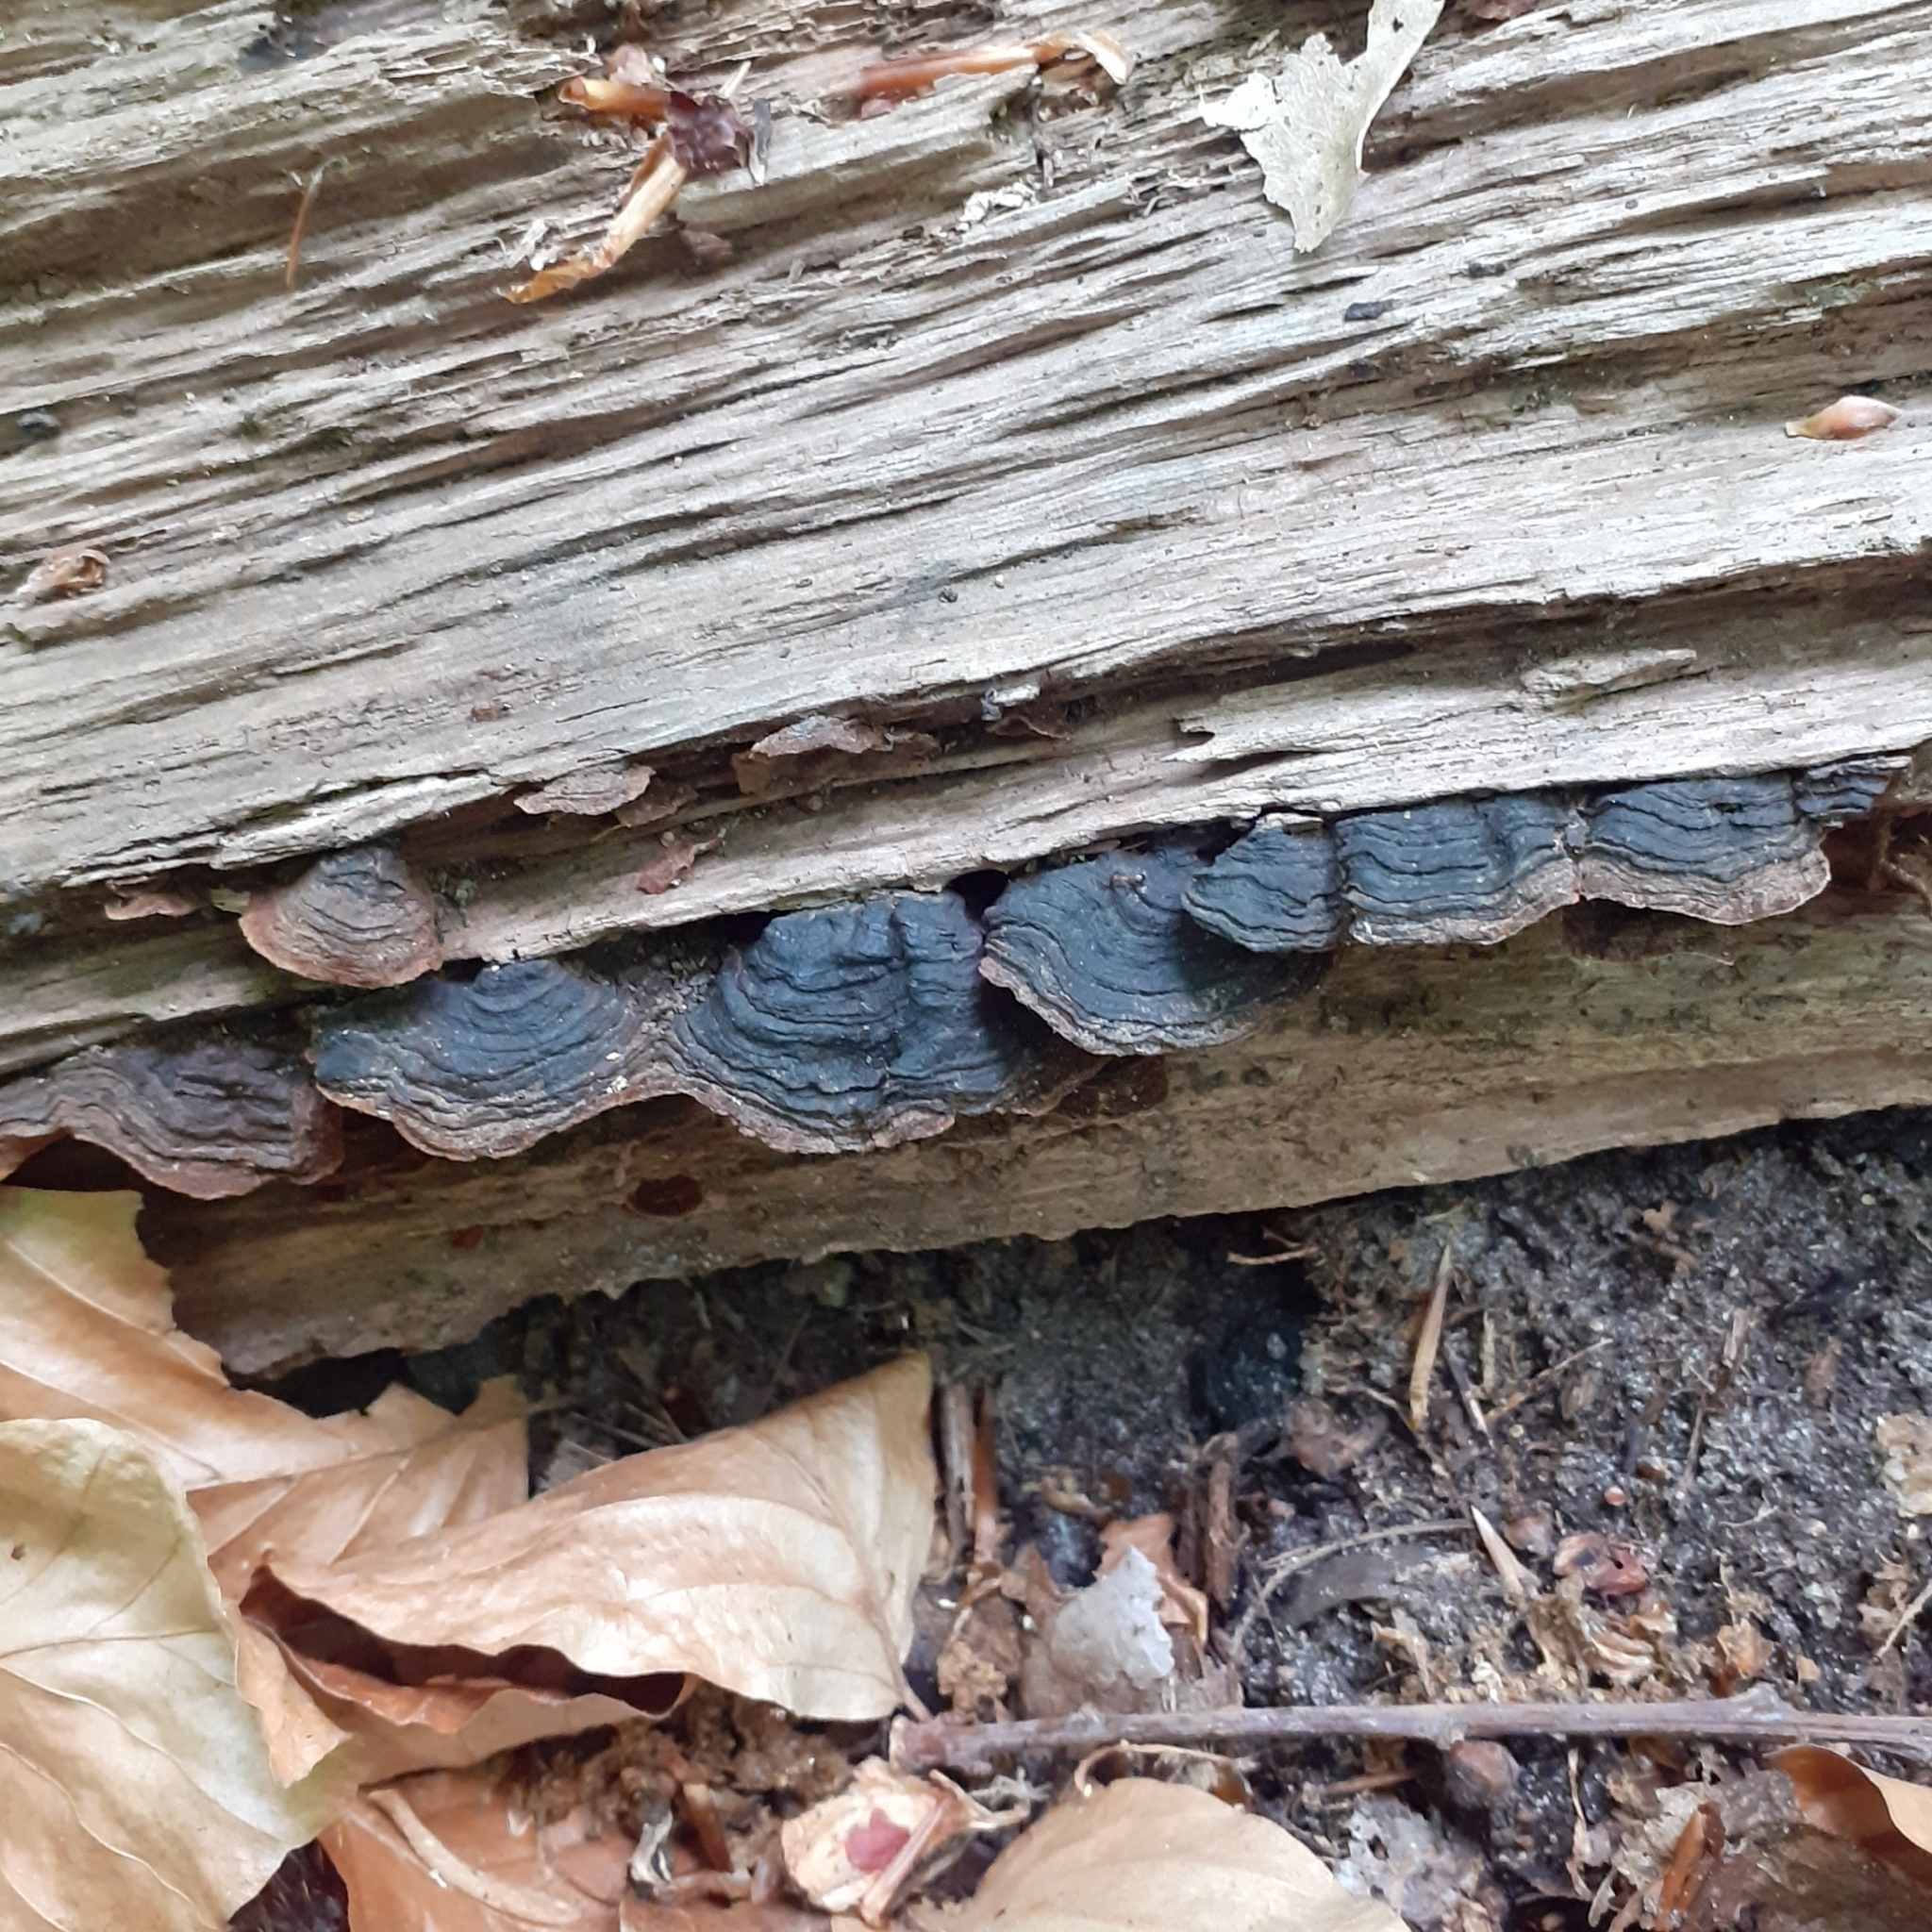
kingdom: Fungi
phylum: Basidiomycota
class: Agaricomycetes
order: Hymenochaetales
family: Hymenochaetaceae
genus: Hymenochaete
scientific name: Hymenochaete rubiginosa
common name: Oak curtain crust
